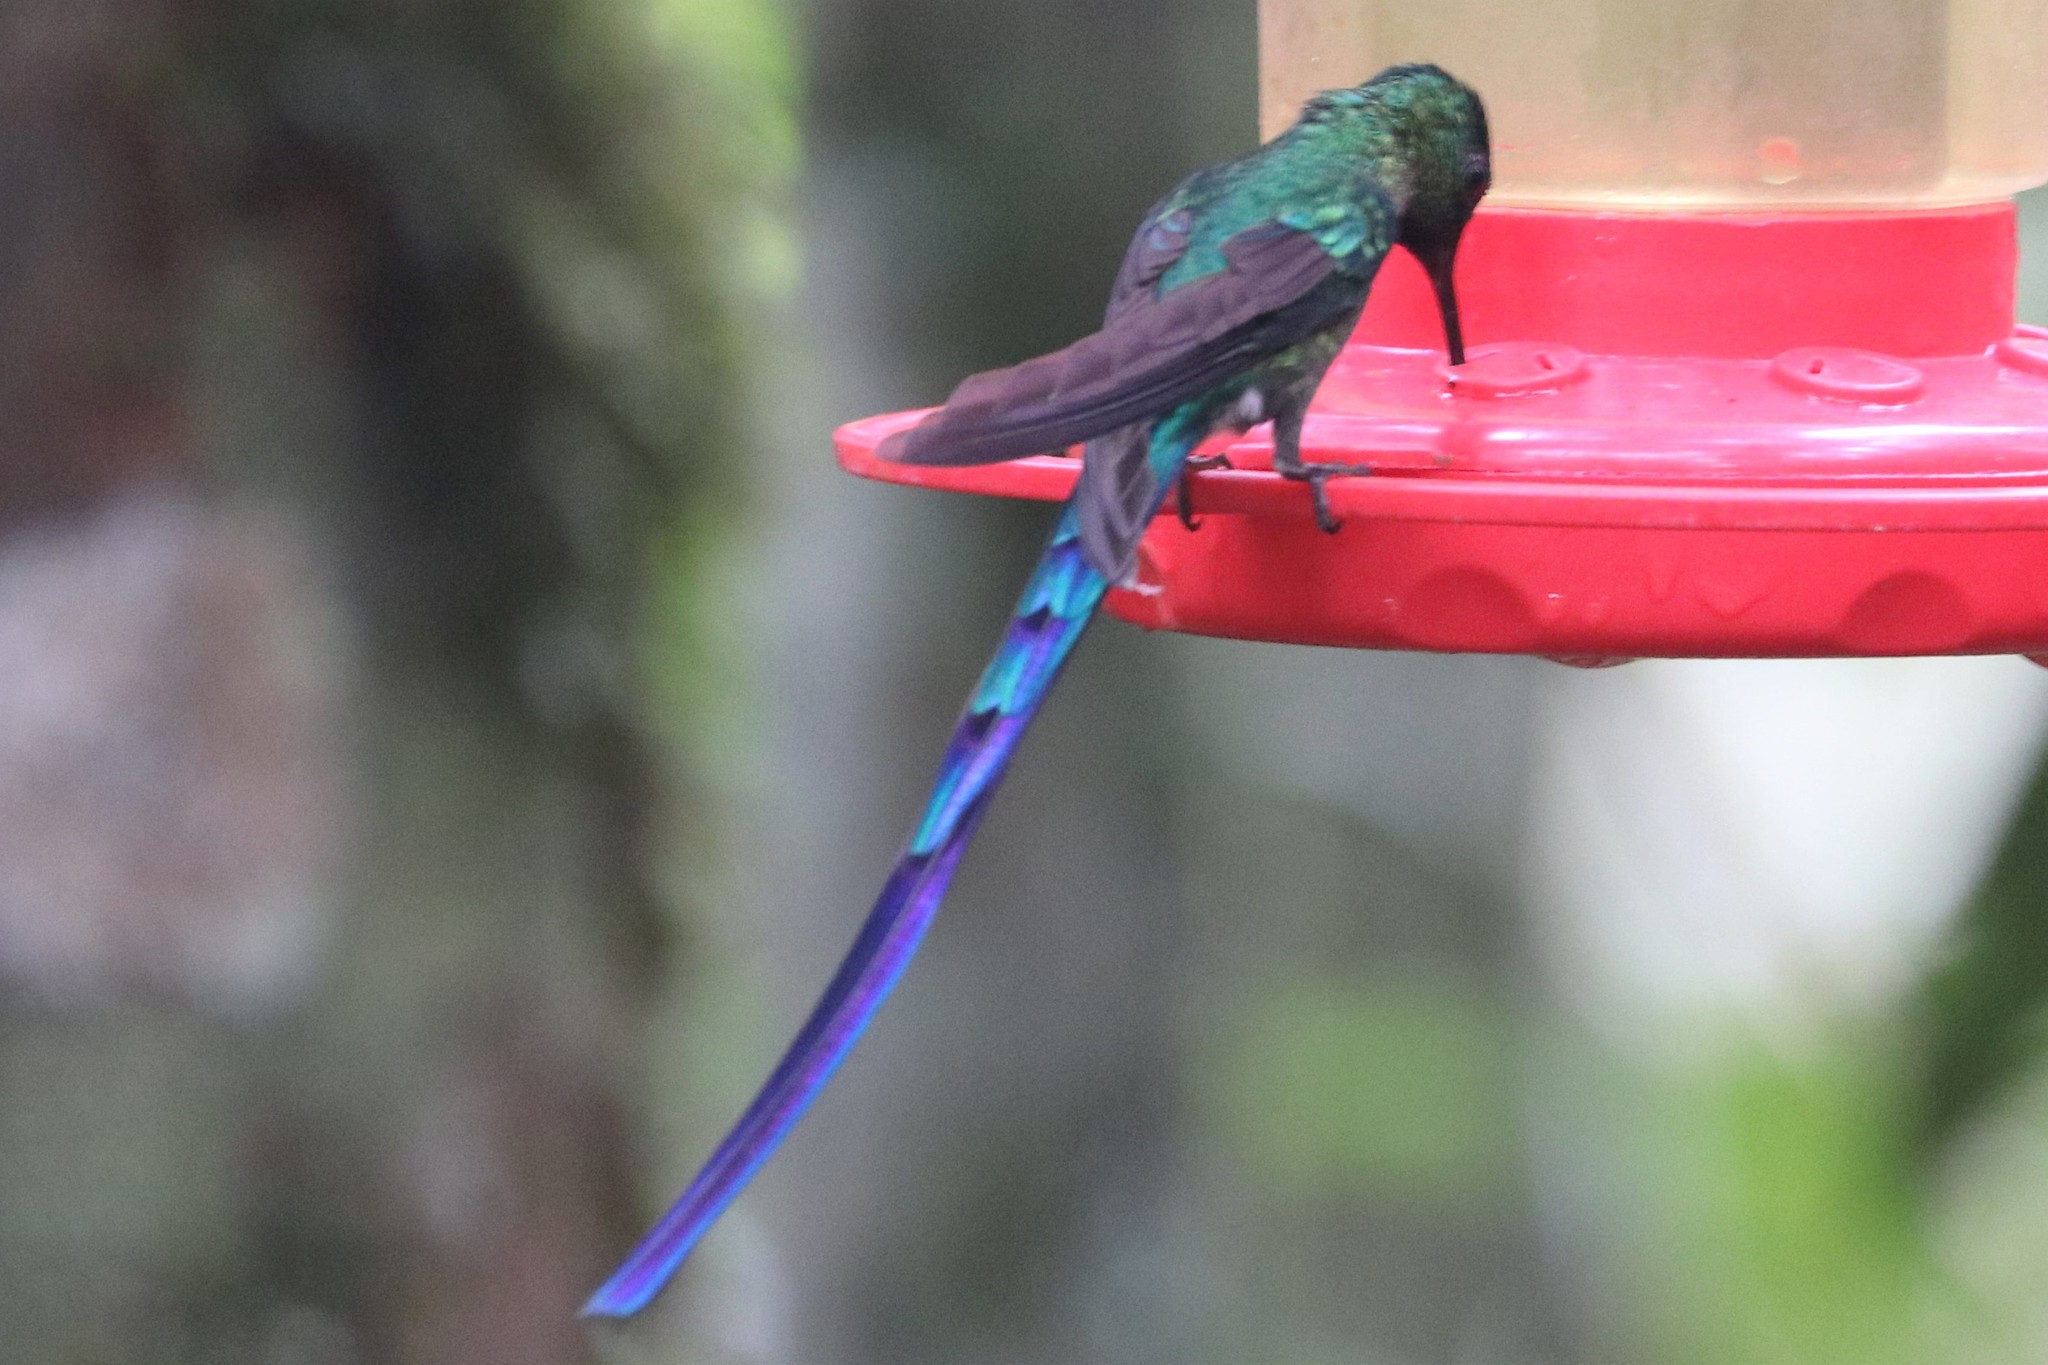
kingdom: Animalia
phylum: Chordata
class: Aves
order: Apodiformes
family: Trochilidae
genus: Aglaiocercus
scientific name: Aglaiocercus kingii
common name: Long-tailed sylph
